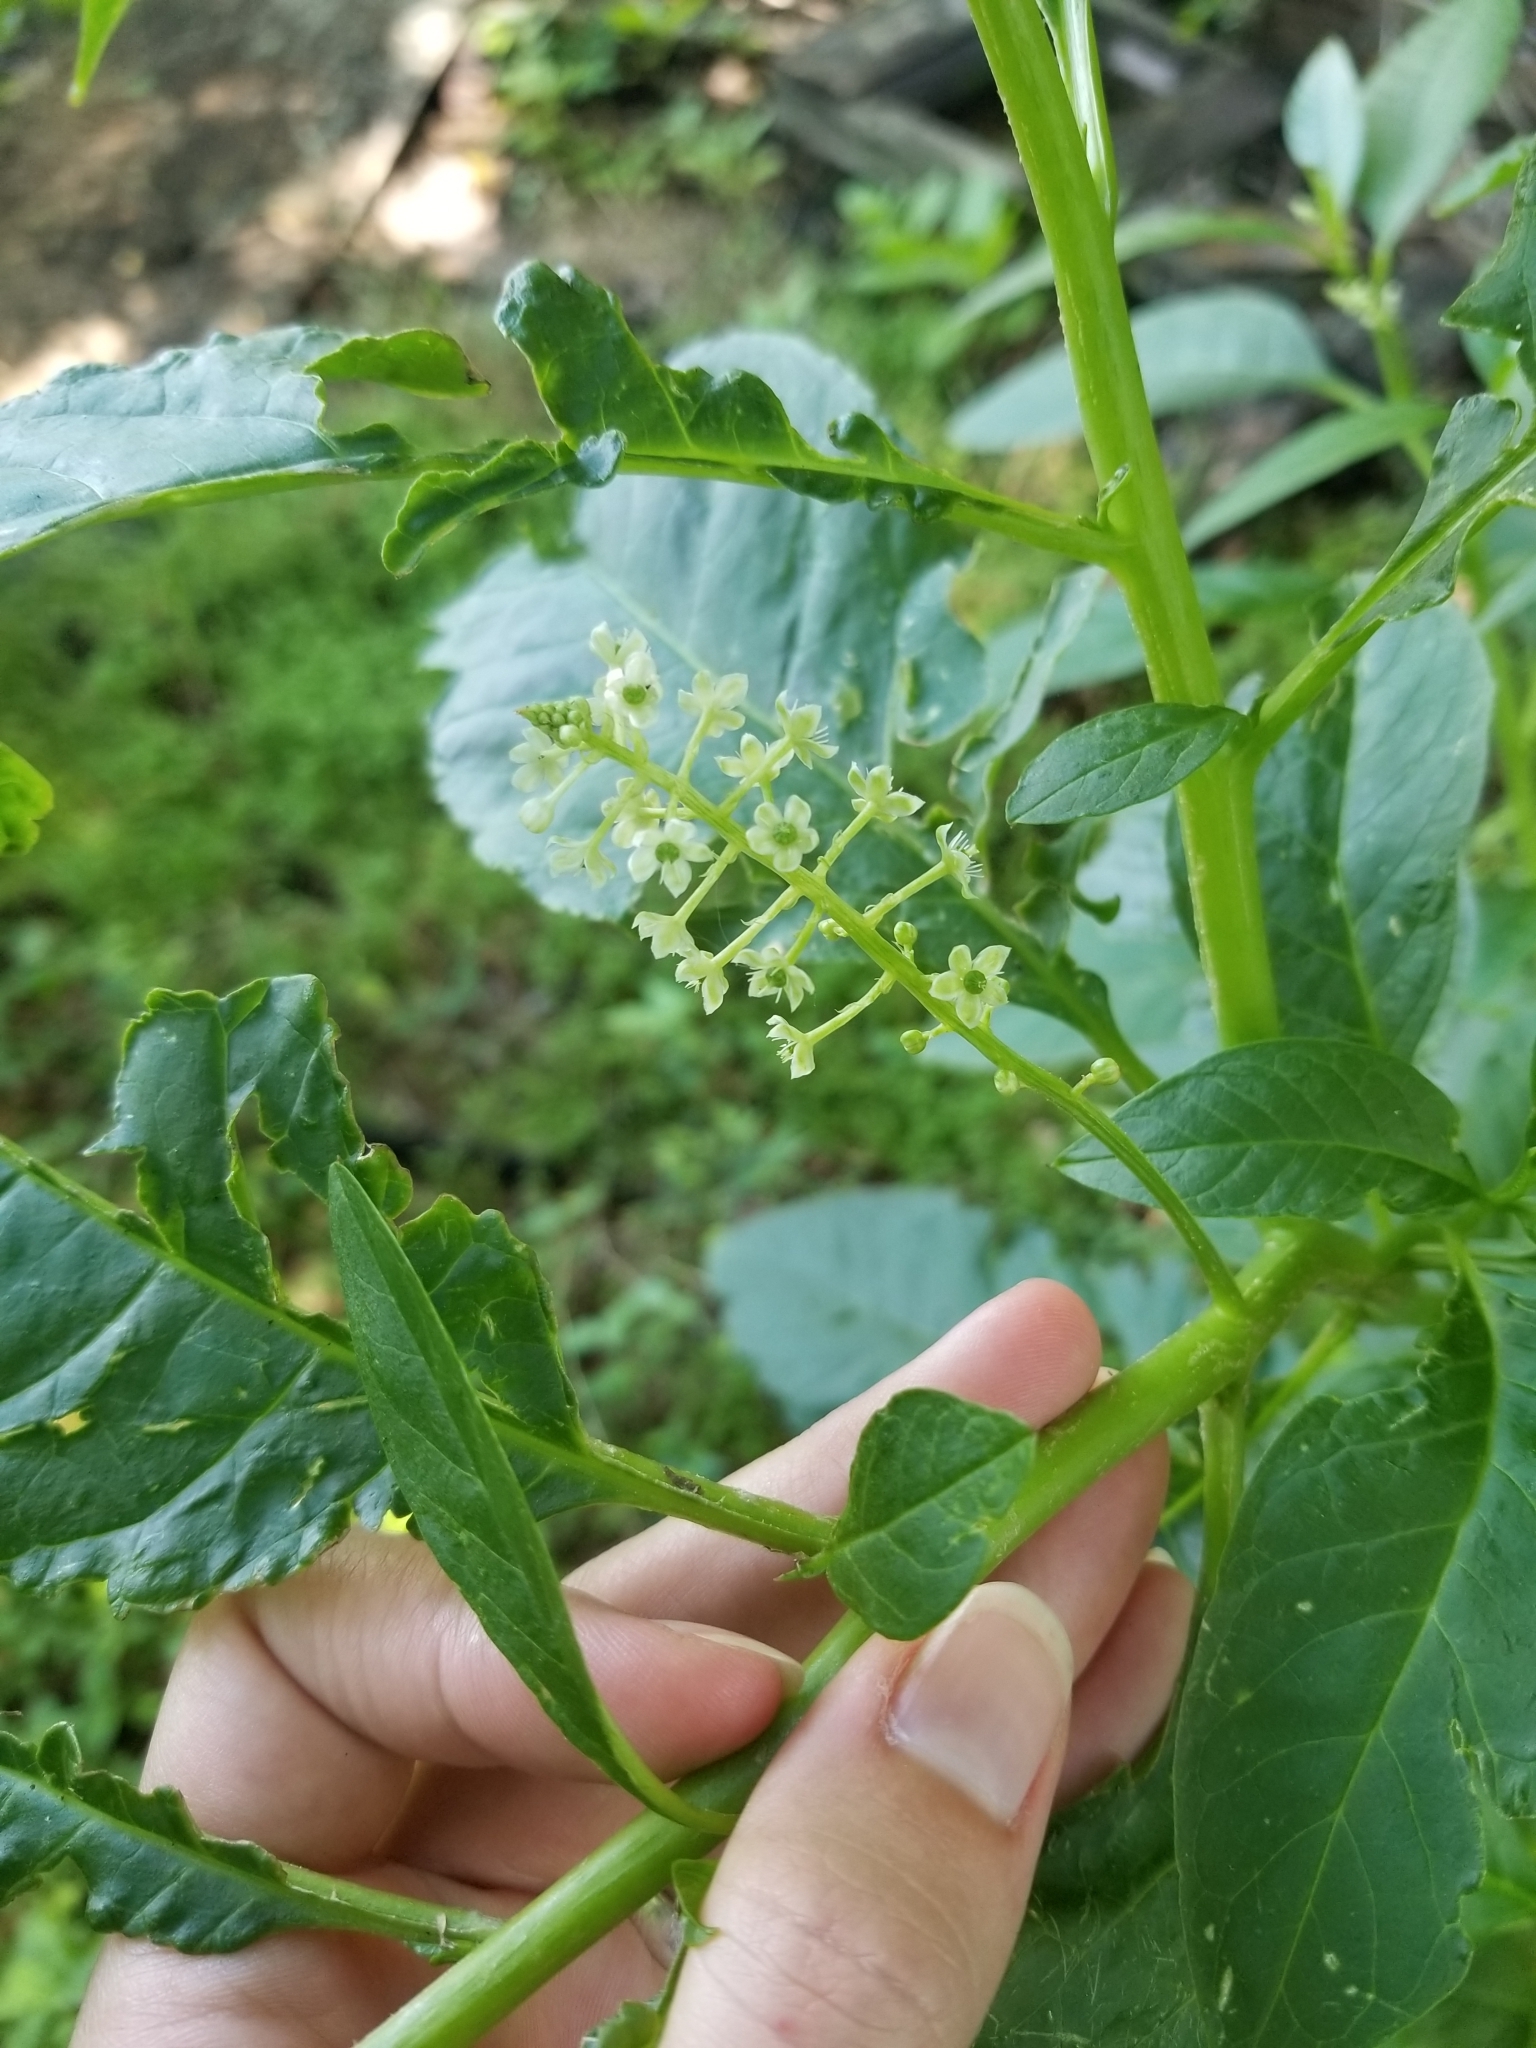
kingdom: Plantae
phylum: Tracheophyta
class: Magnoliopsida
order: Caryophyllales
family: Phytolaccaceae
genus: Phytolacca
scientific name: Phytolacca americana
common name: American pokeweed
